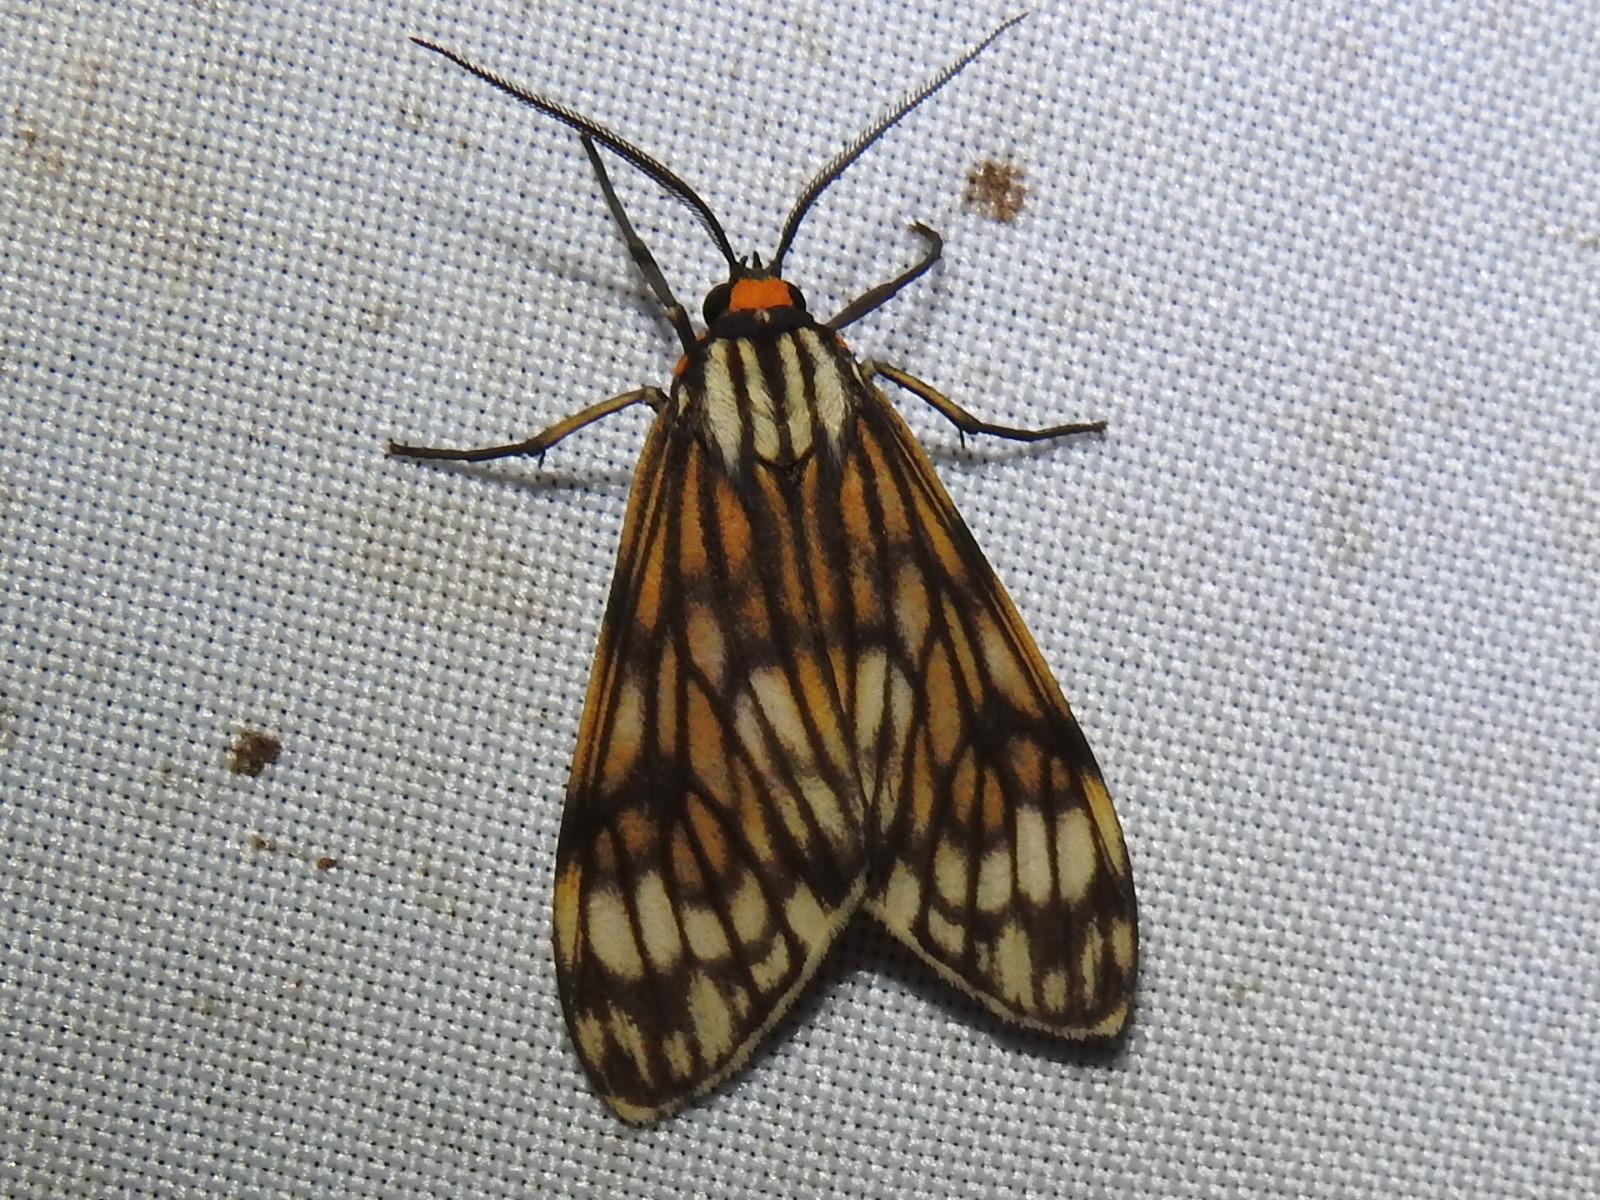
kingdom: Animalia
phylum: Arthropoda
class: Insecta
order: Lepidoptera
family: Erebidae
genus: Theages
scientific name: Theages decorum
